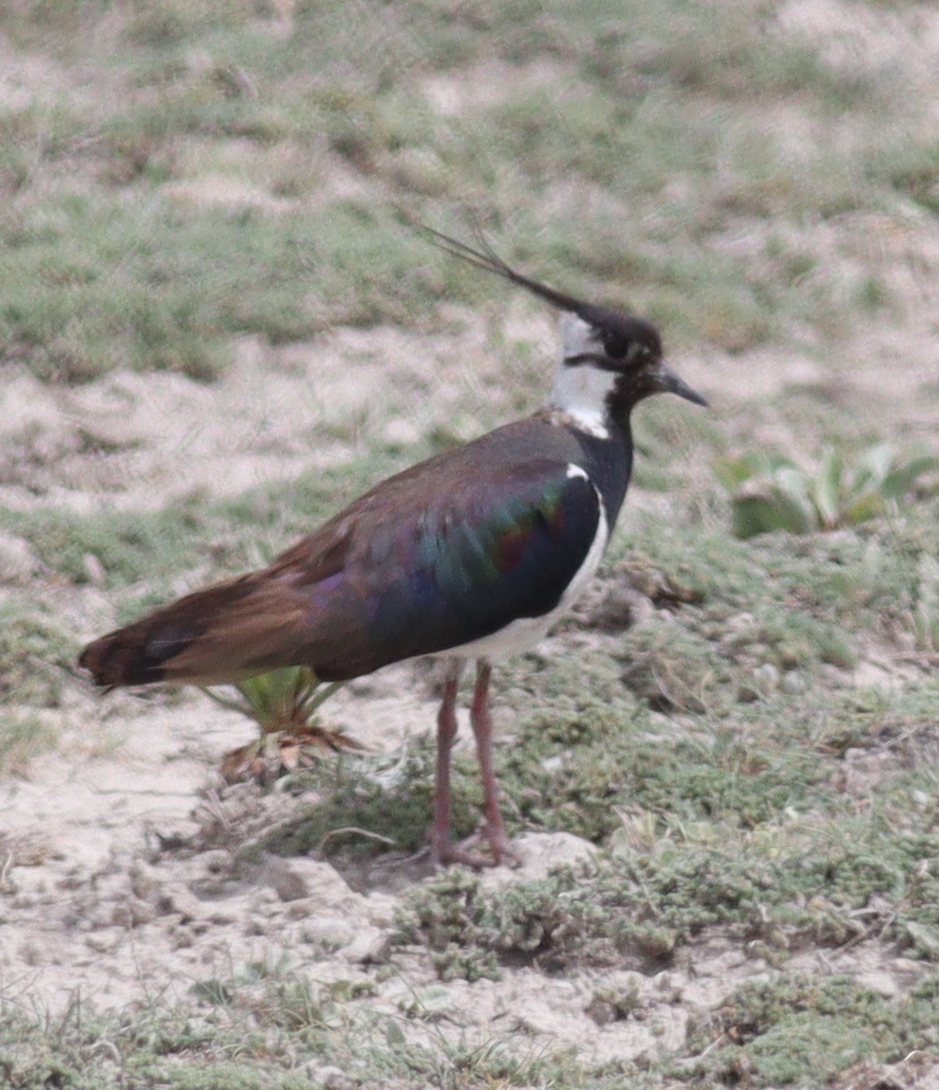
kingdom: Animalia
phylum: Chordata
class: Aves
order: Charadriiformes
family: Charadriidae
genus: Vanellus
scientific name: Vanellus vanellus
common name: Northern lapwing
